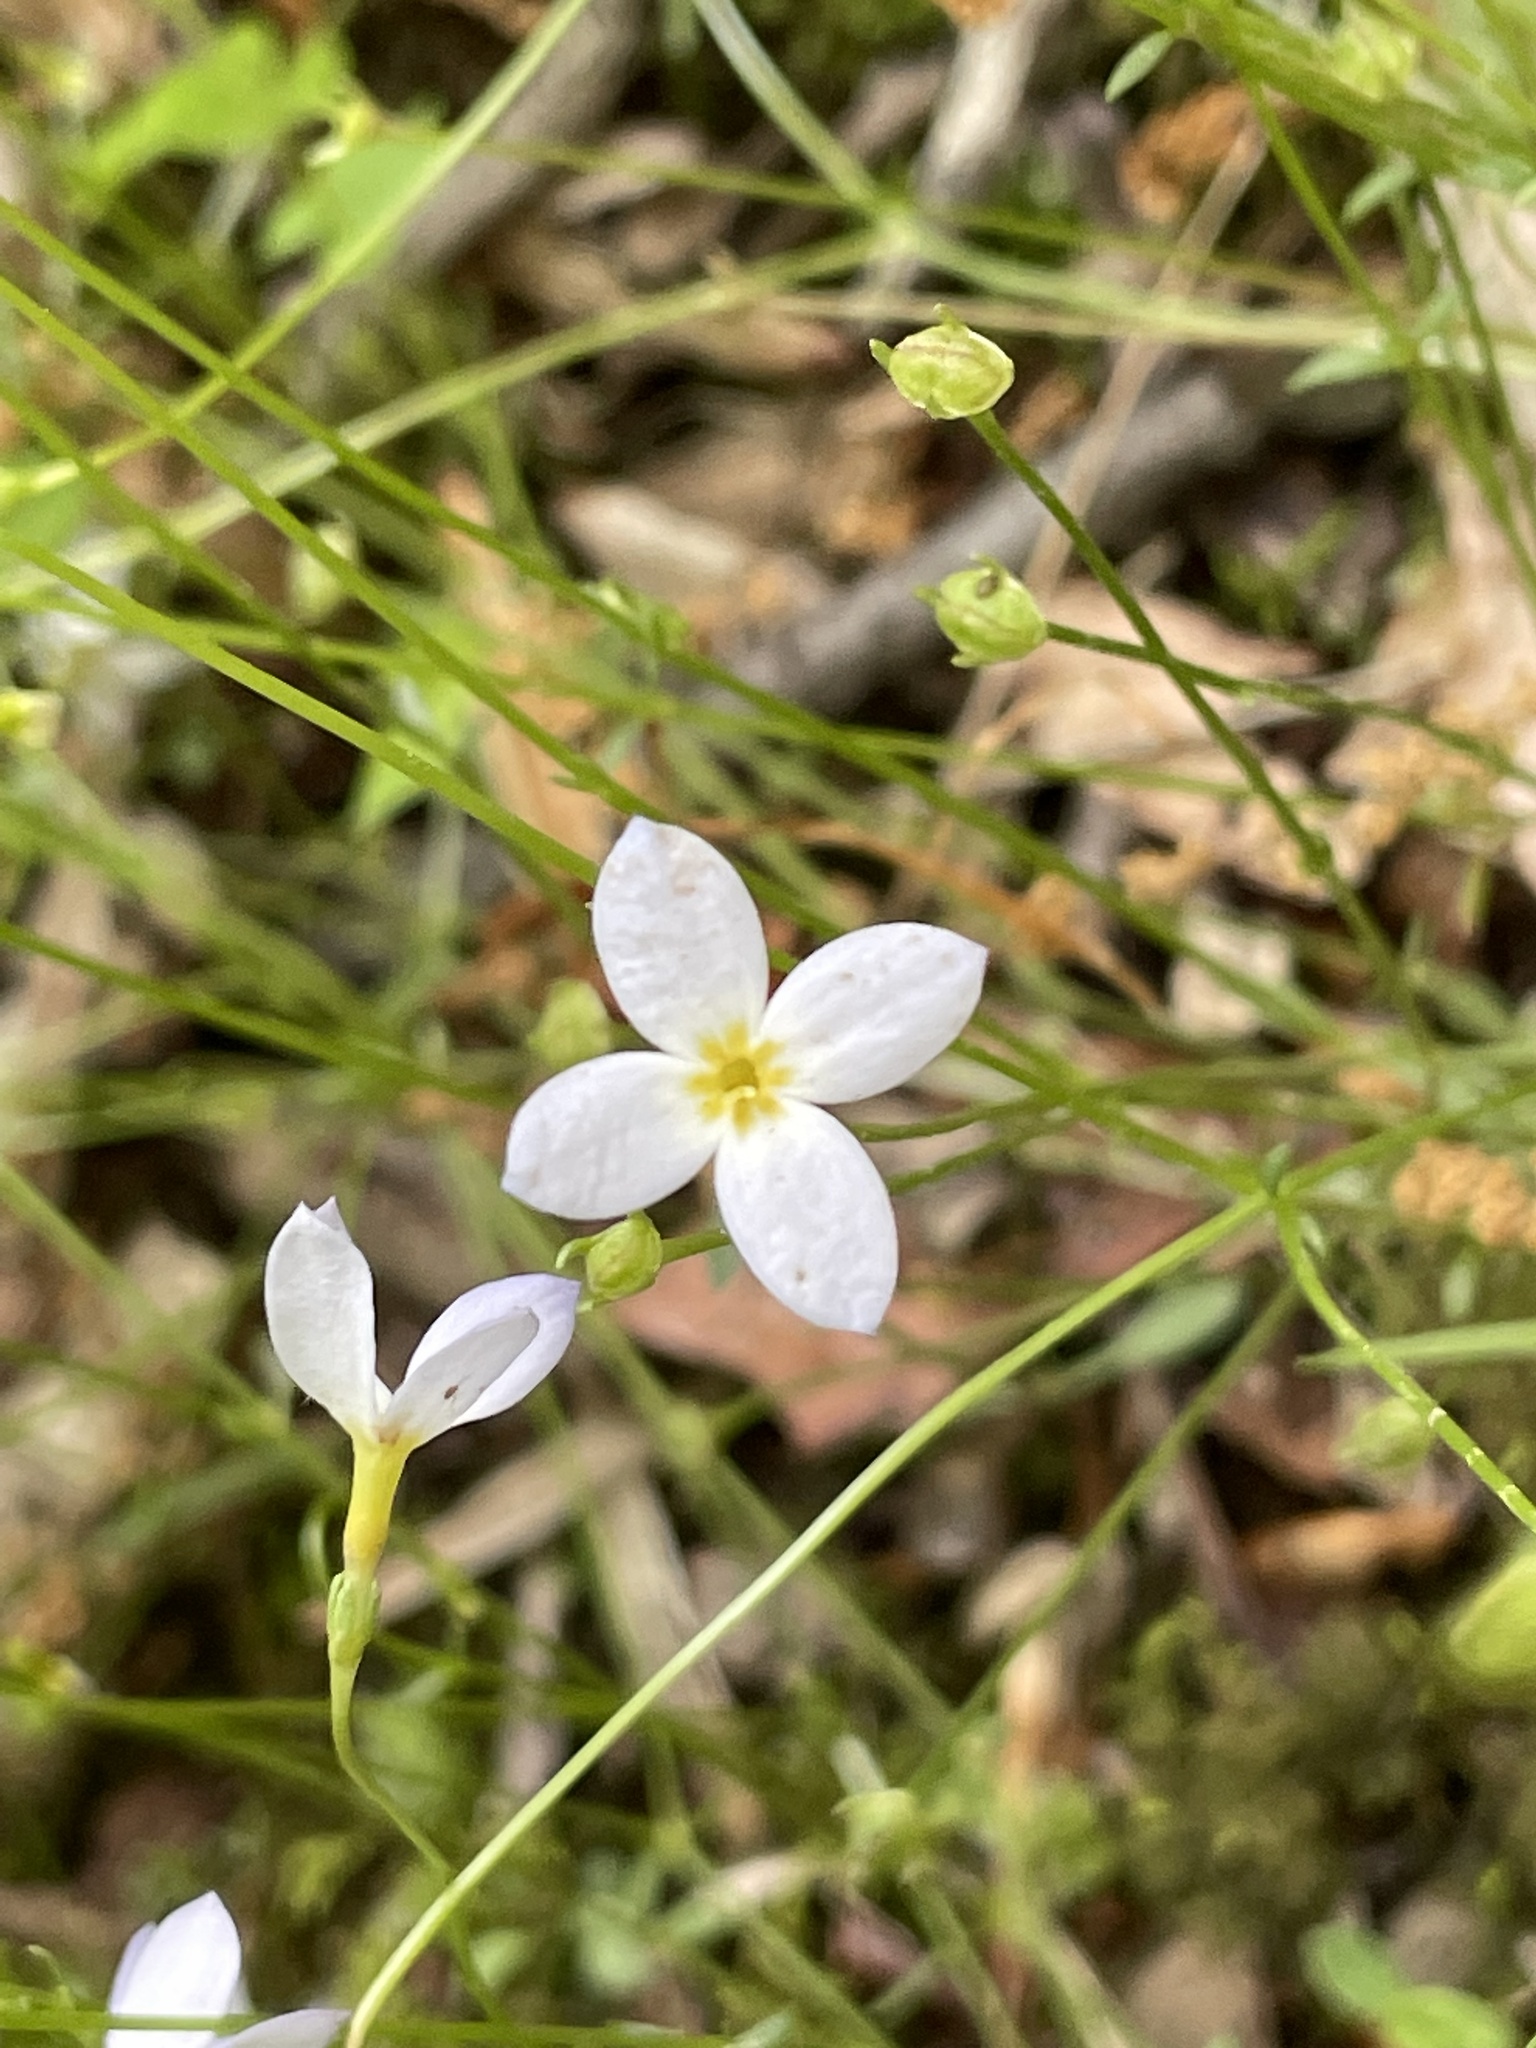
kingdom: Plantae
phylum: Tracheophyta
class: Magnoliopsida
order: Gentianales
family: Rubiaceae
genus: Houstonia
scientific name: Houstonia caerulea
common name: Bluets
